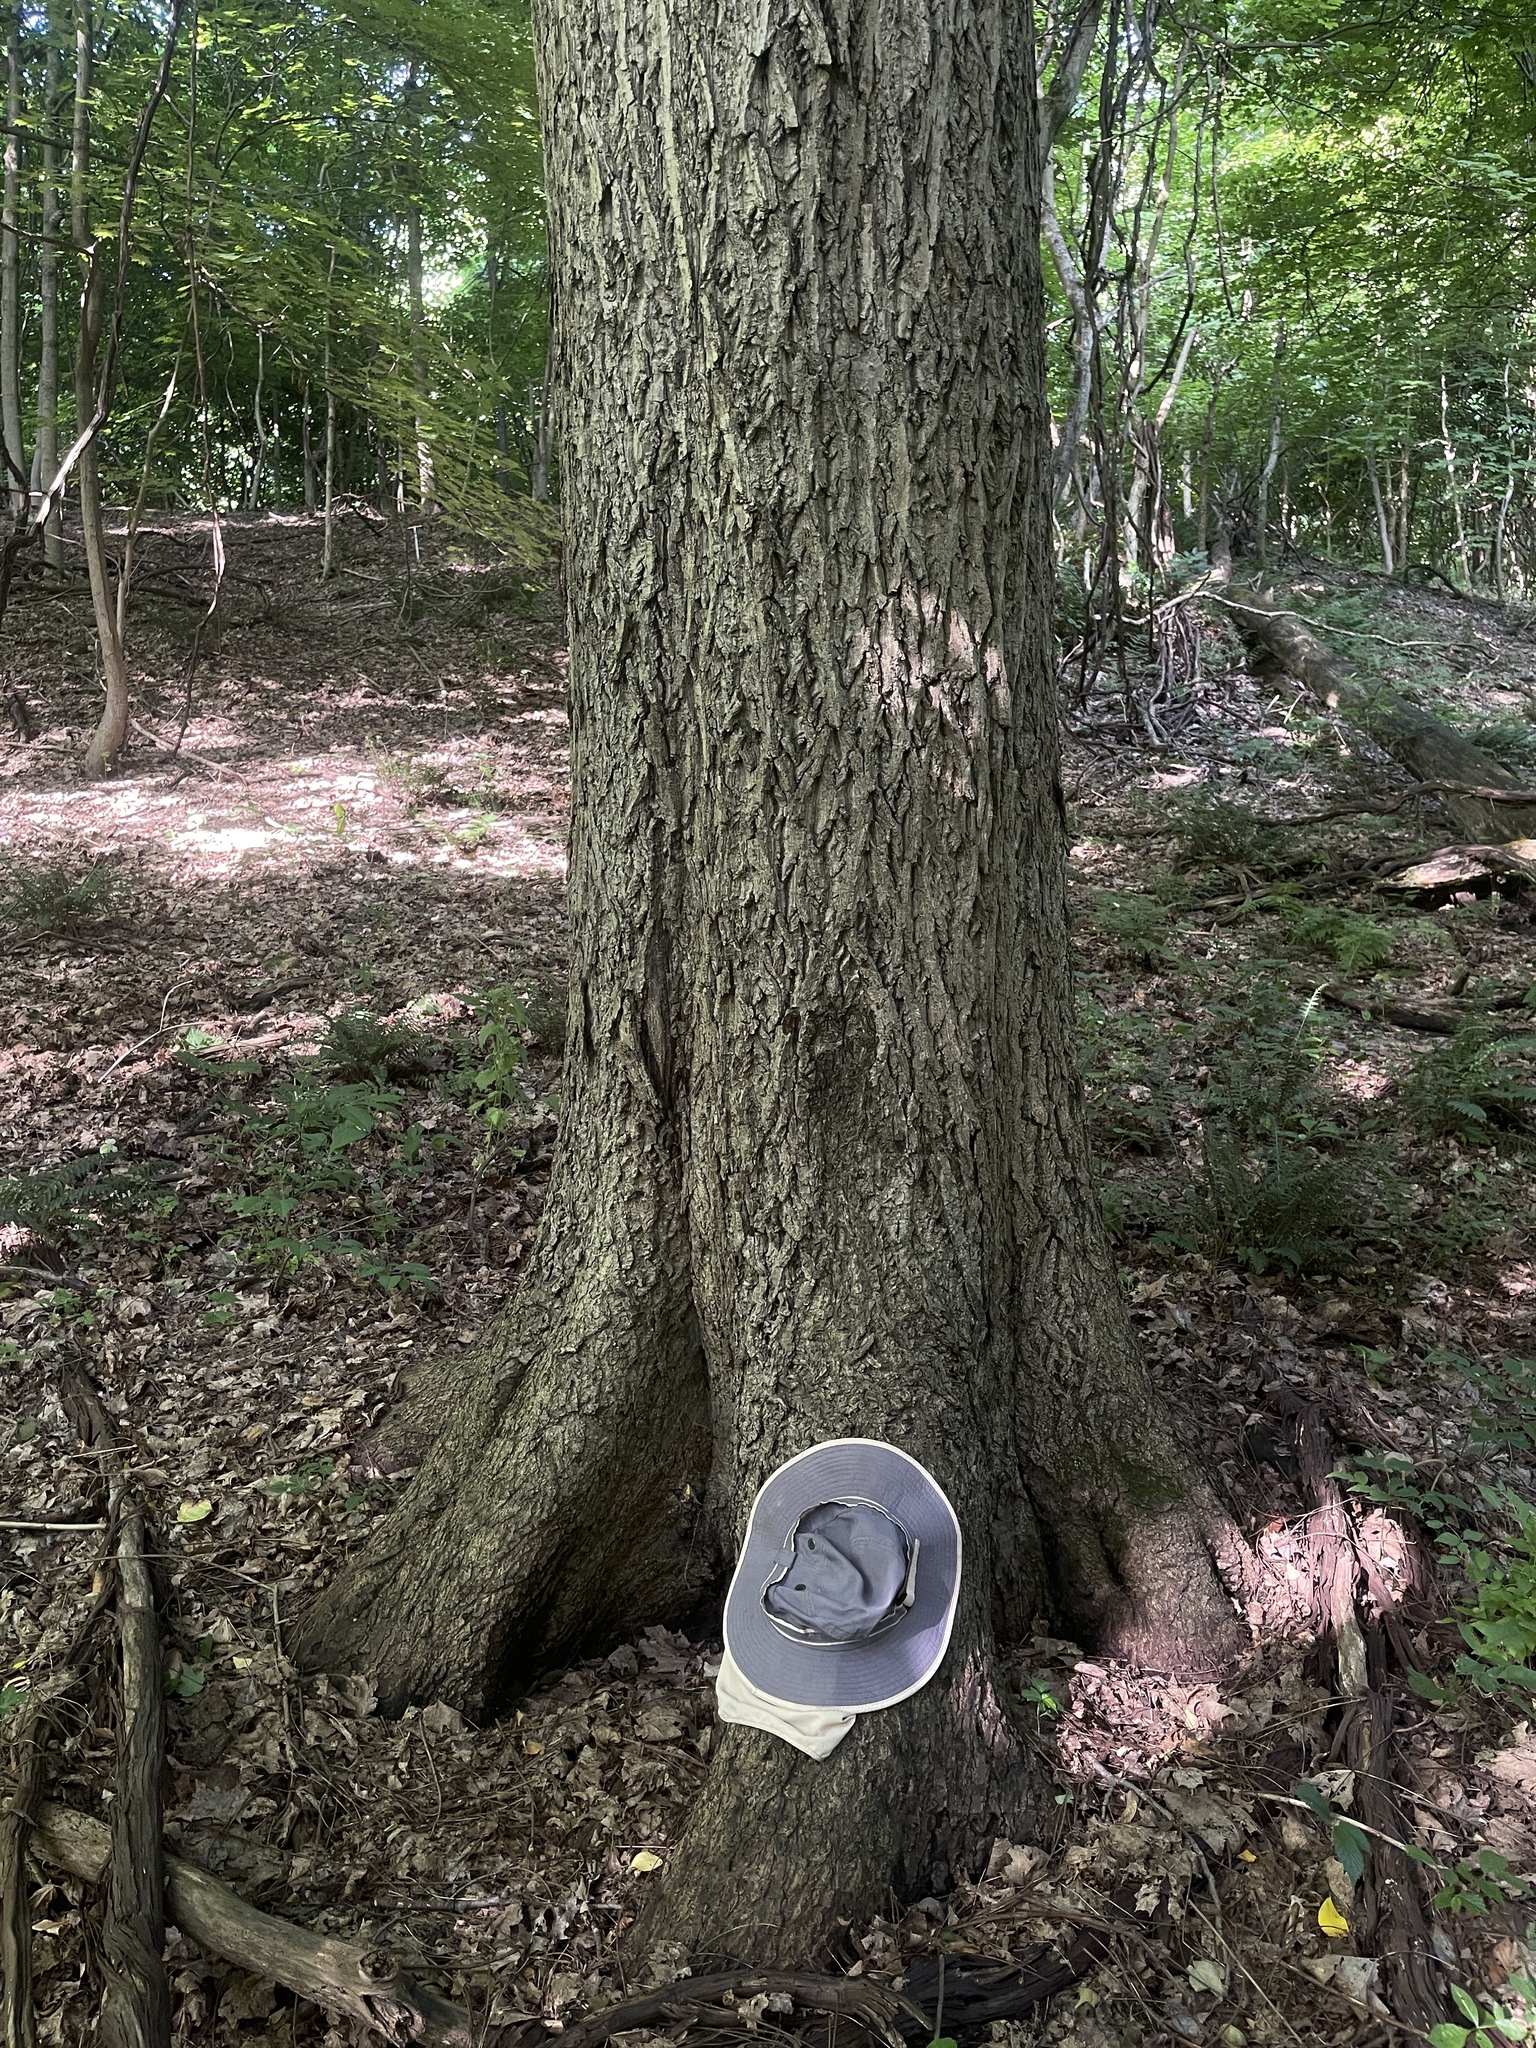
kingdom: Plantae
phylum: Tracheophyta
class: Magnoliopsida
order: Fagales
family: Juglandaceae
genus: Juglans
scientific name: Juglans cinerea
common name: Butternut
